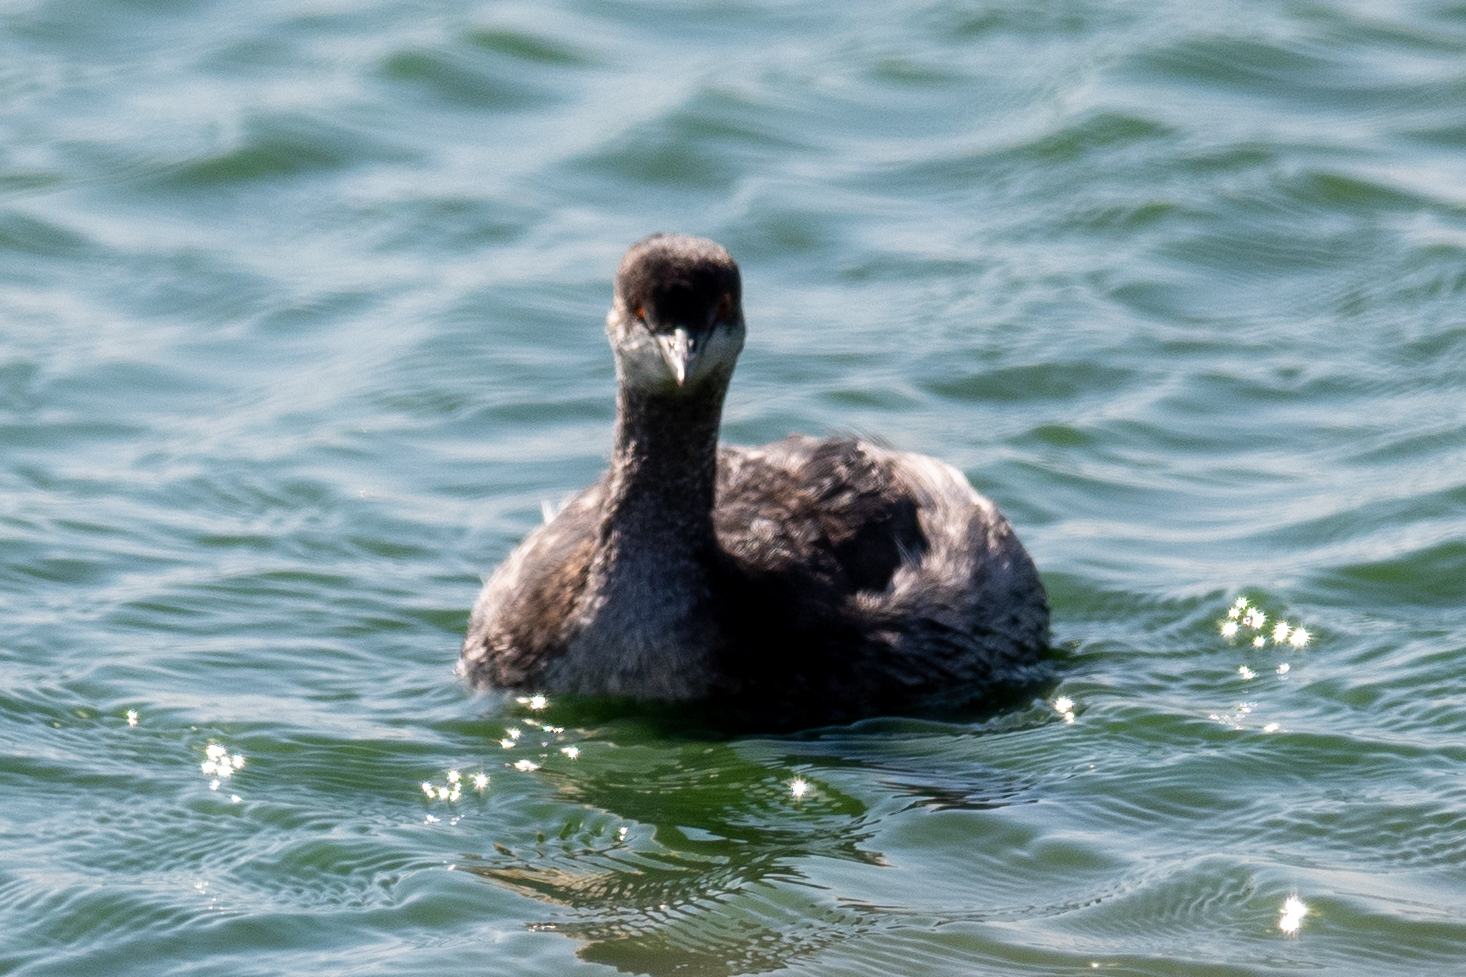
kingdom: Animalia
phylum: Chordata
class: Aves
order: Podicipediformes
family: Podicipedidae
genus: Podiceps
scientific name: Podiceps nigricollis
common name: Black-necked grebe
